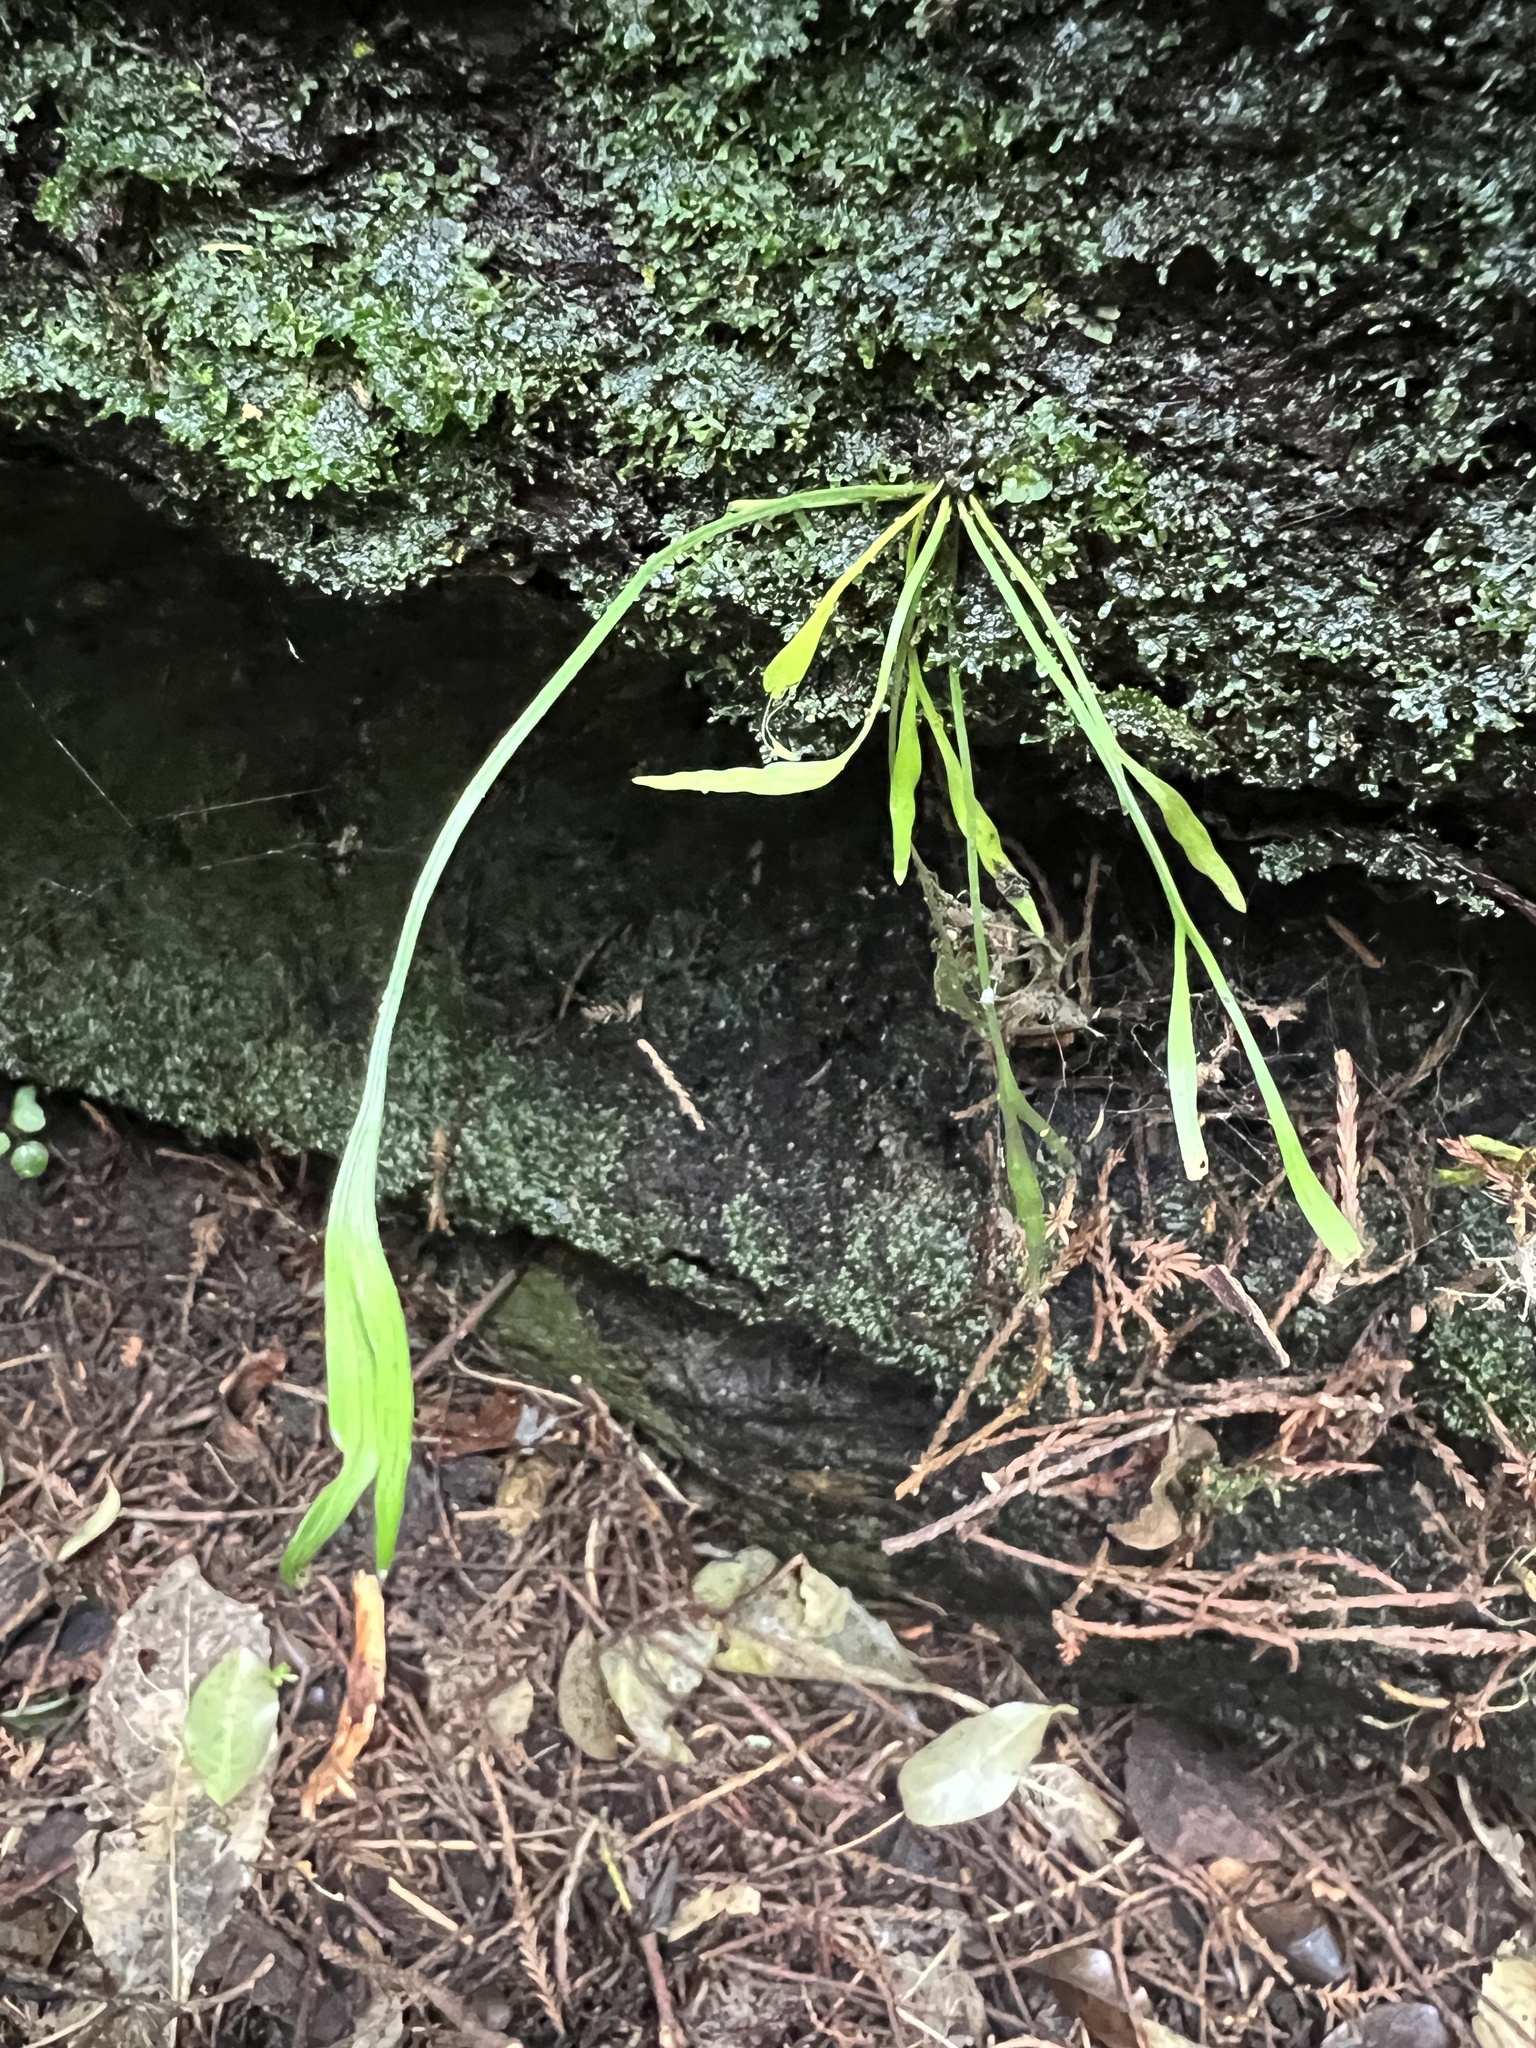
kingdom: Plantae
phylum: Tracheophyta
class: Polypodiopsida
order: Polypodiales
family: Aspleniaceae
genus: Asplenium
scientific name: Asplenium flaccidum
